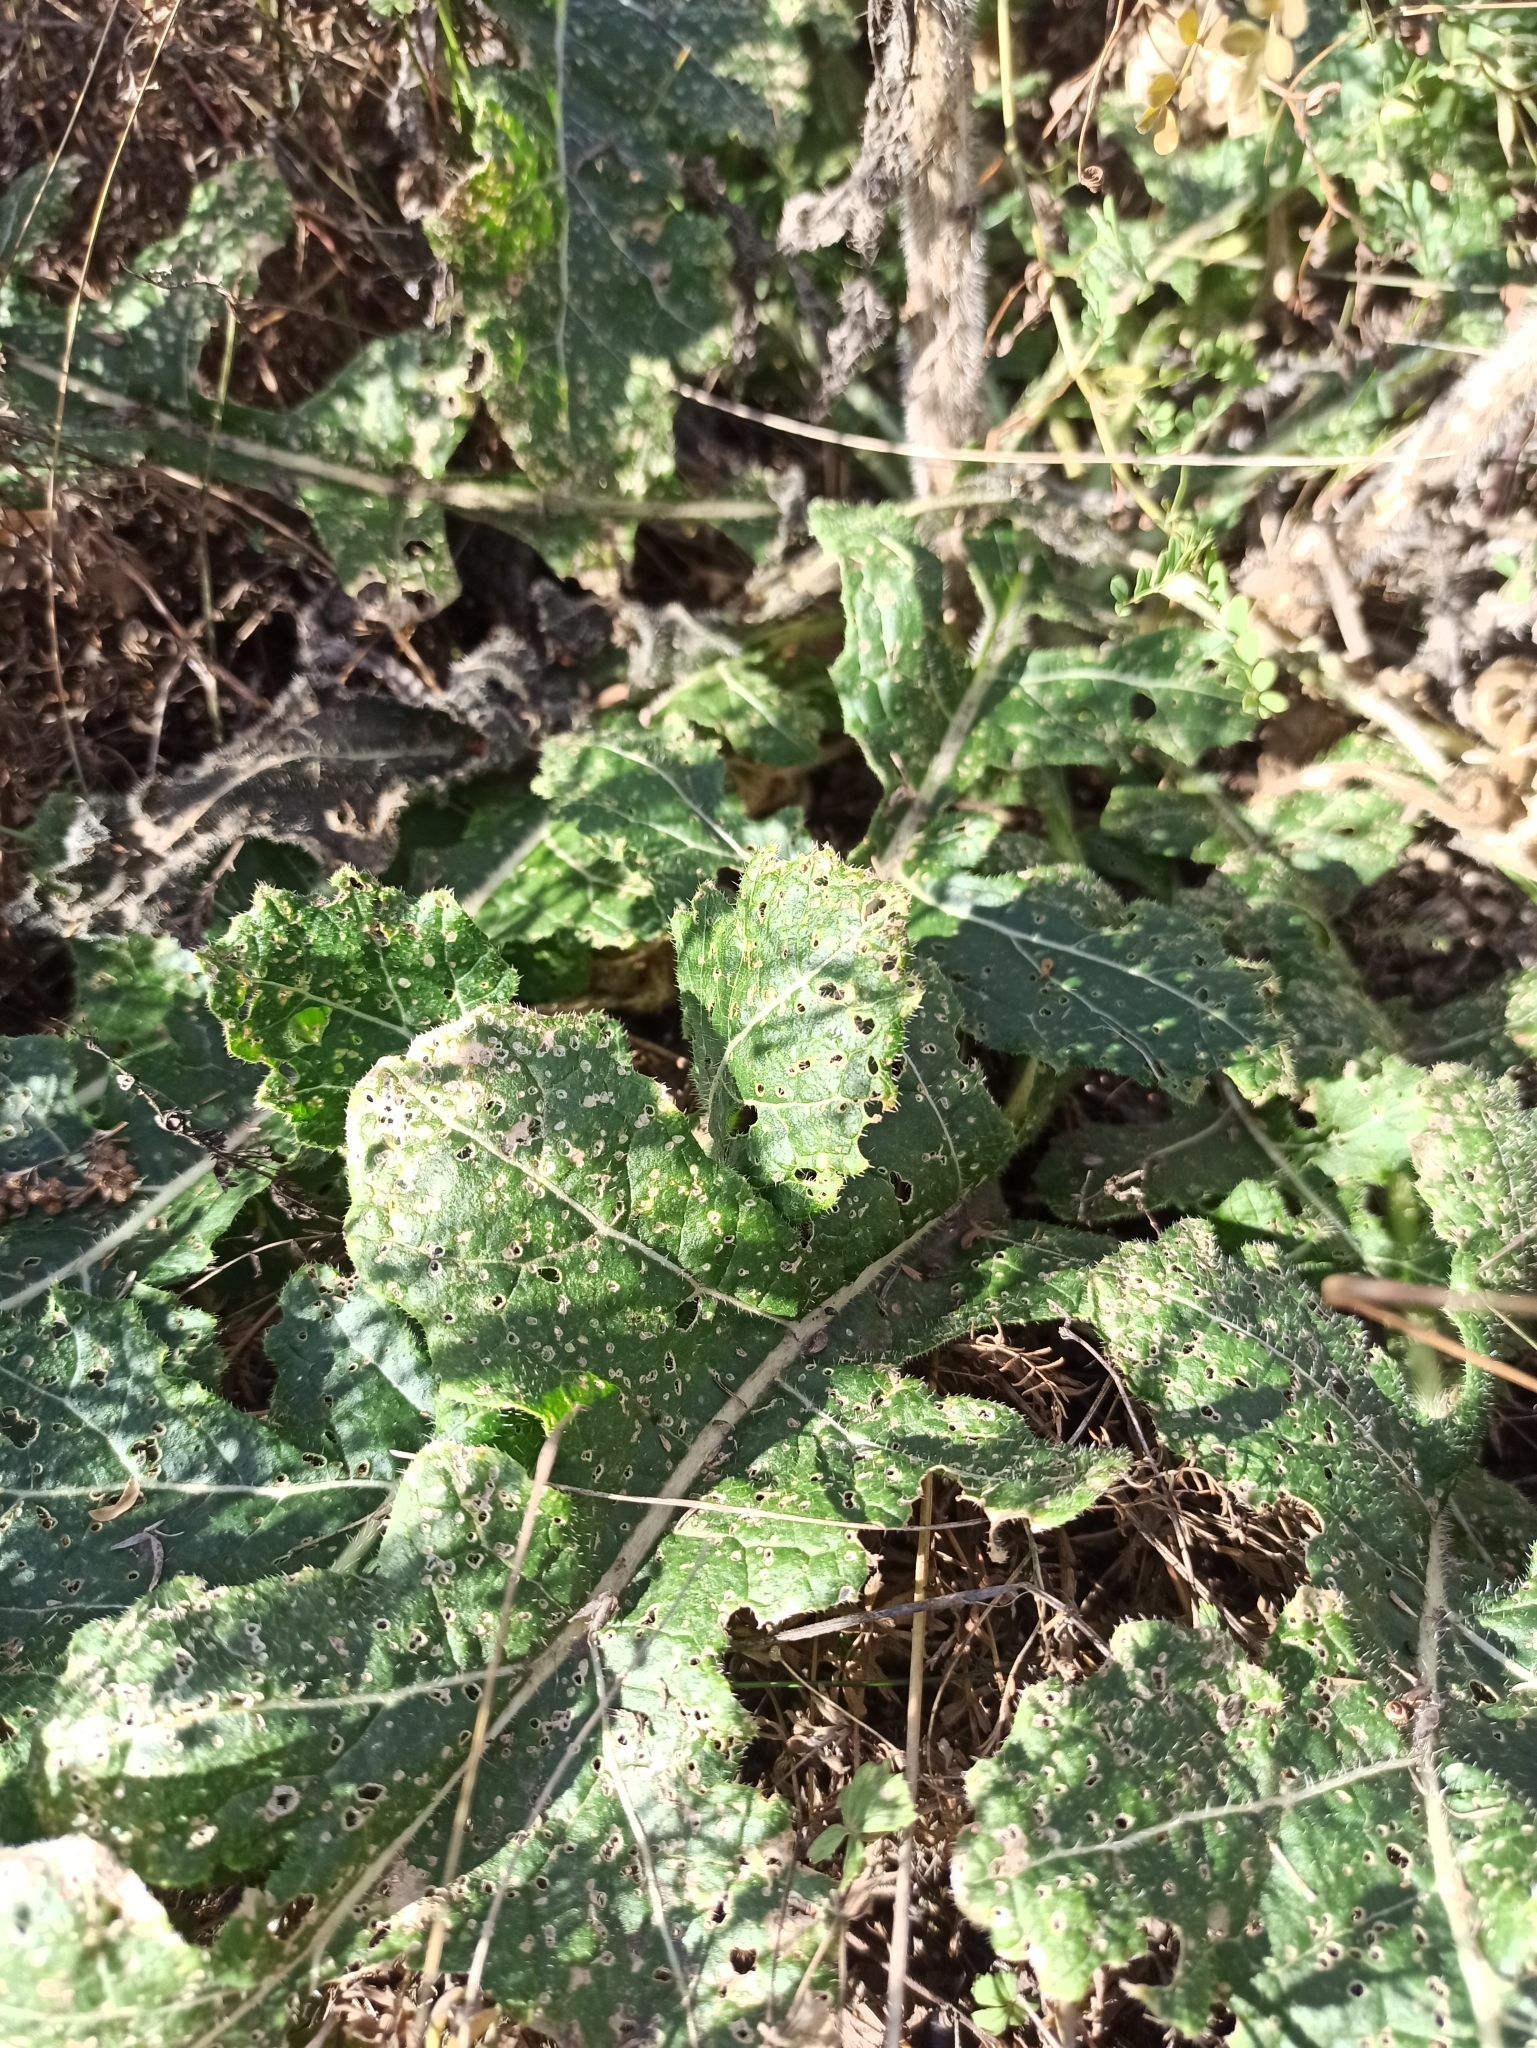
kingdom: Plantae
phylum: Tracheophyta
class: Magnoliopsida
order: Brassicales
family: Brassicaceae
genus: Rapistrum
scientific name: Rapistrum perenne
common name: Steppe cabbage
